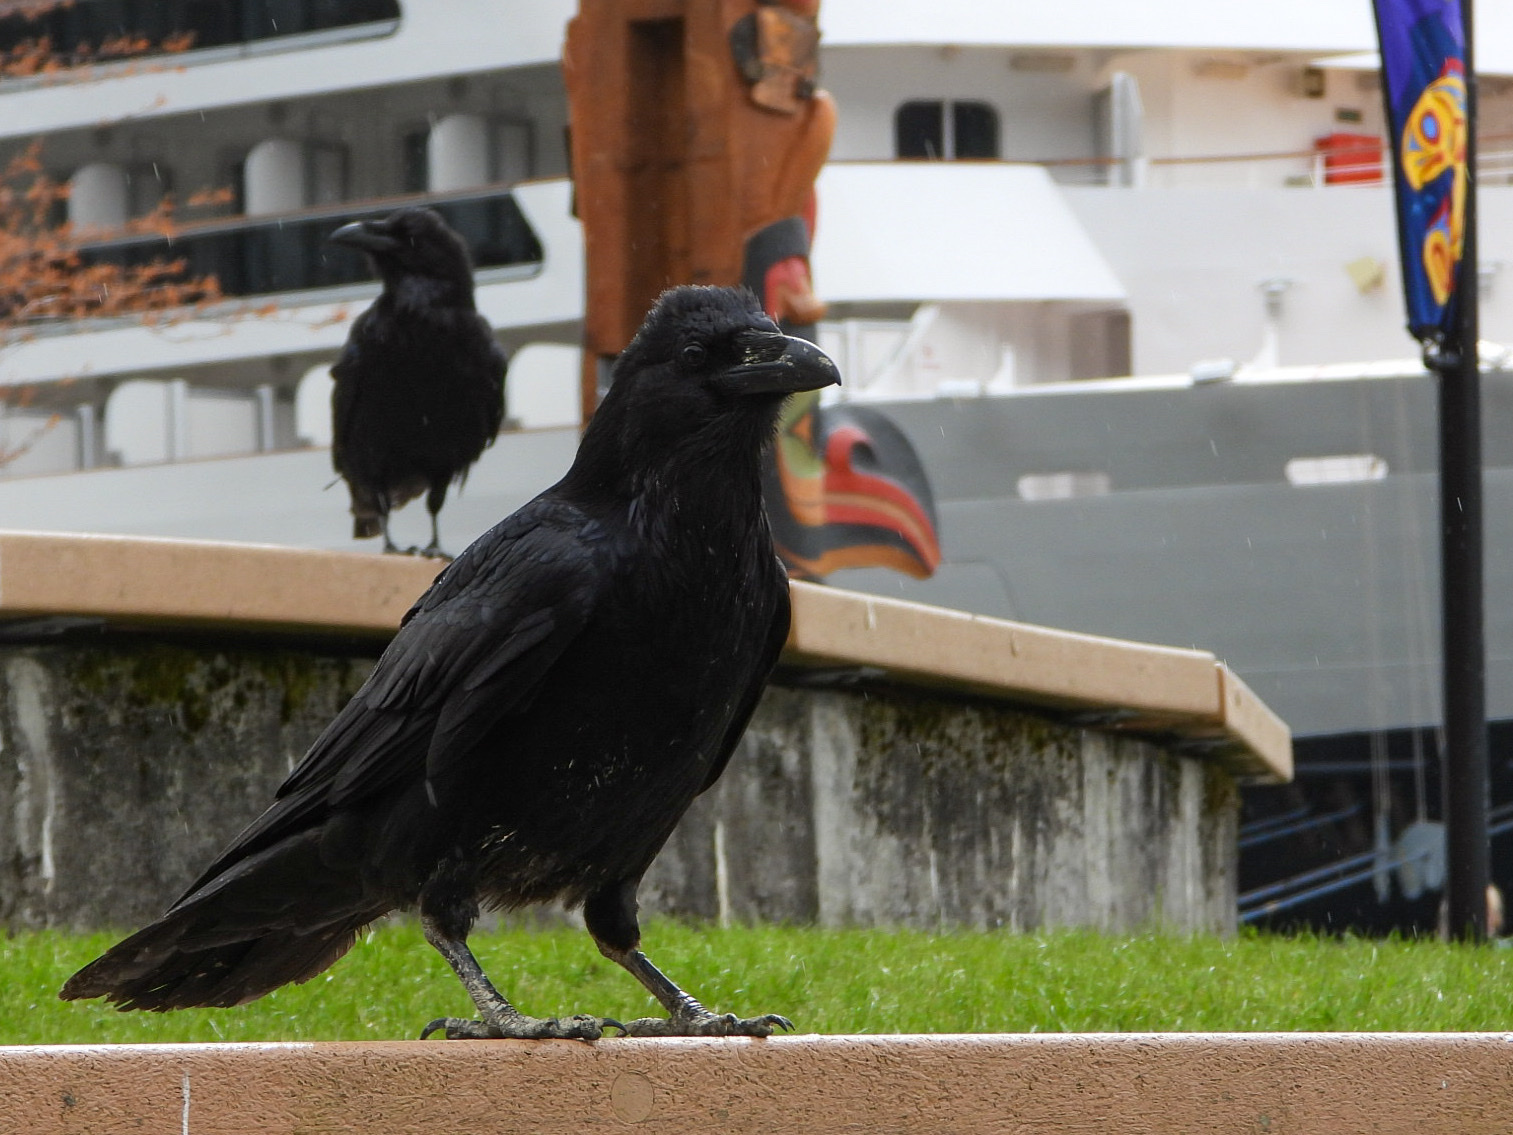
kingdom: Animalia
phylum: Chordata
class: Aves
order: Passeriformes
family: Corvidae
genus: Corvus
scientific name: Corvus corax
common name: Common raven
